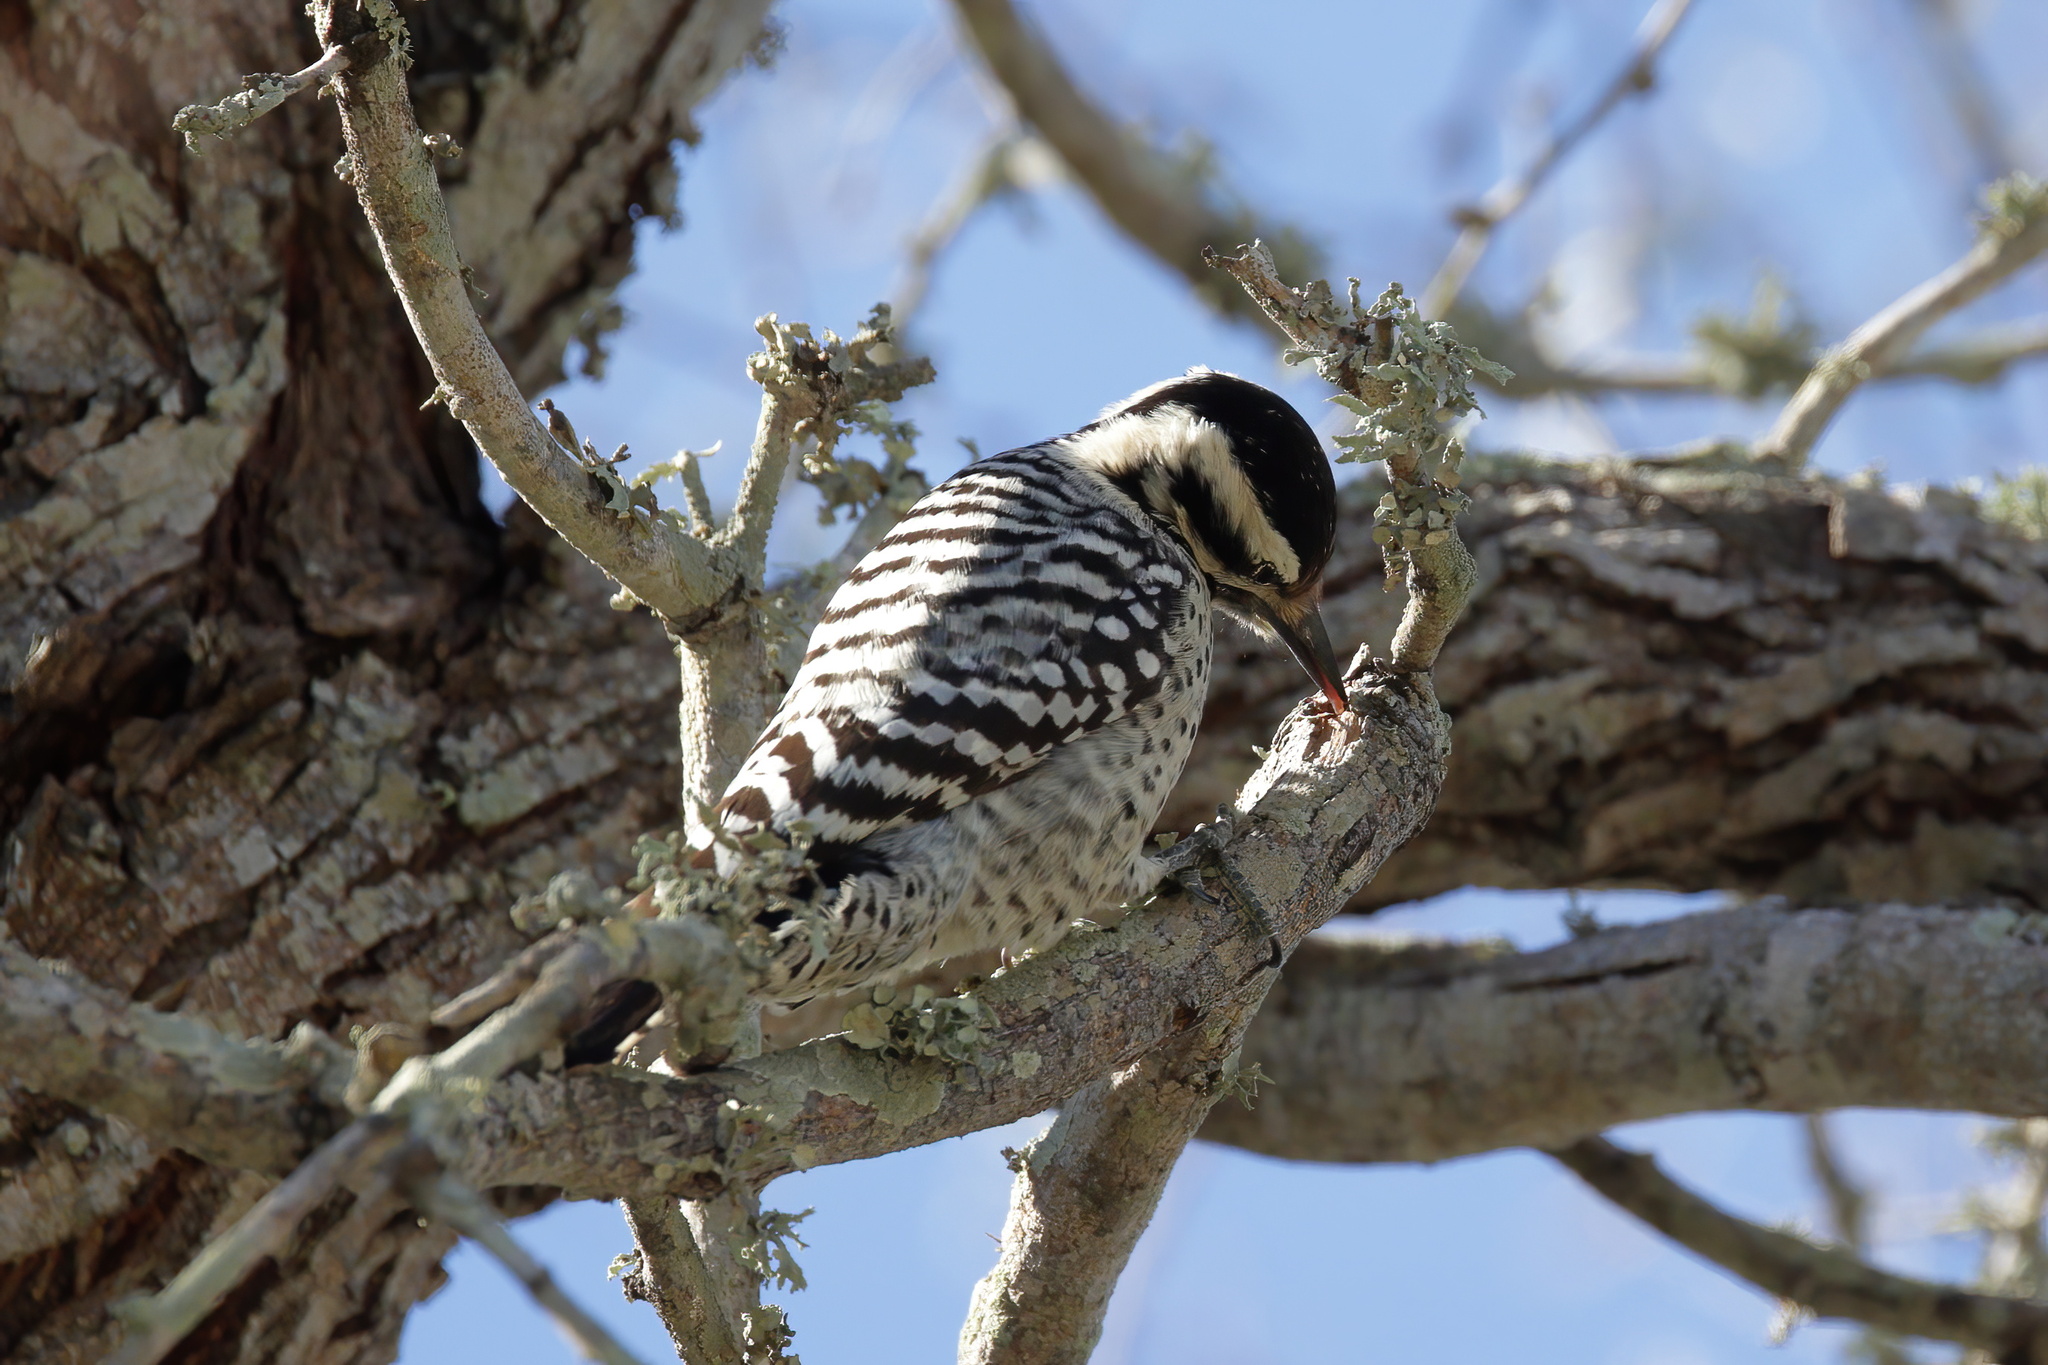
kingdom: Animalia
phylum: Chordata
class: Aves
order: Piciformes
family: Picidae
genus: Dryobates
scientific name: Dryobates scalaris
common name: Ladder-backed woodpecker
